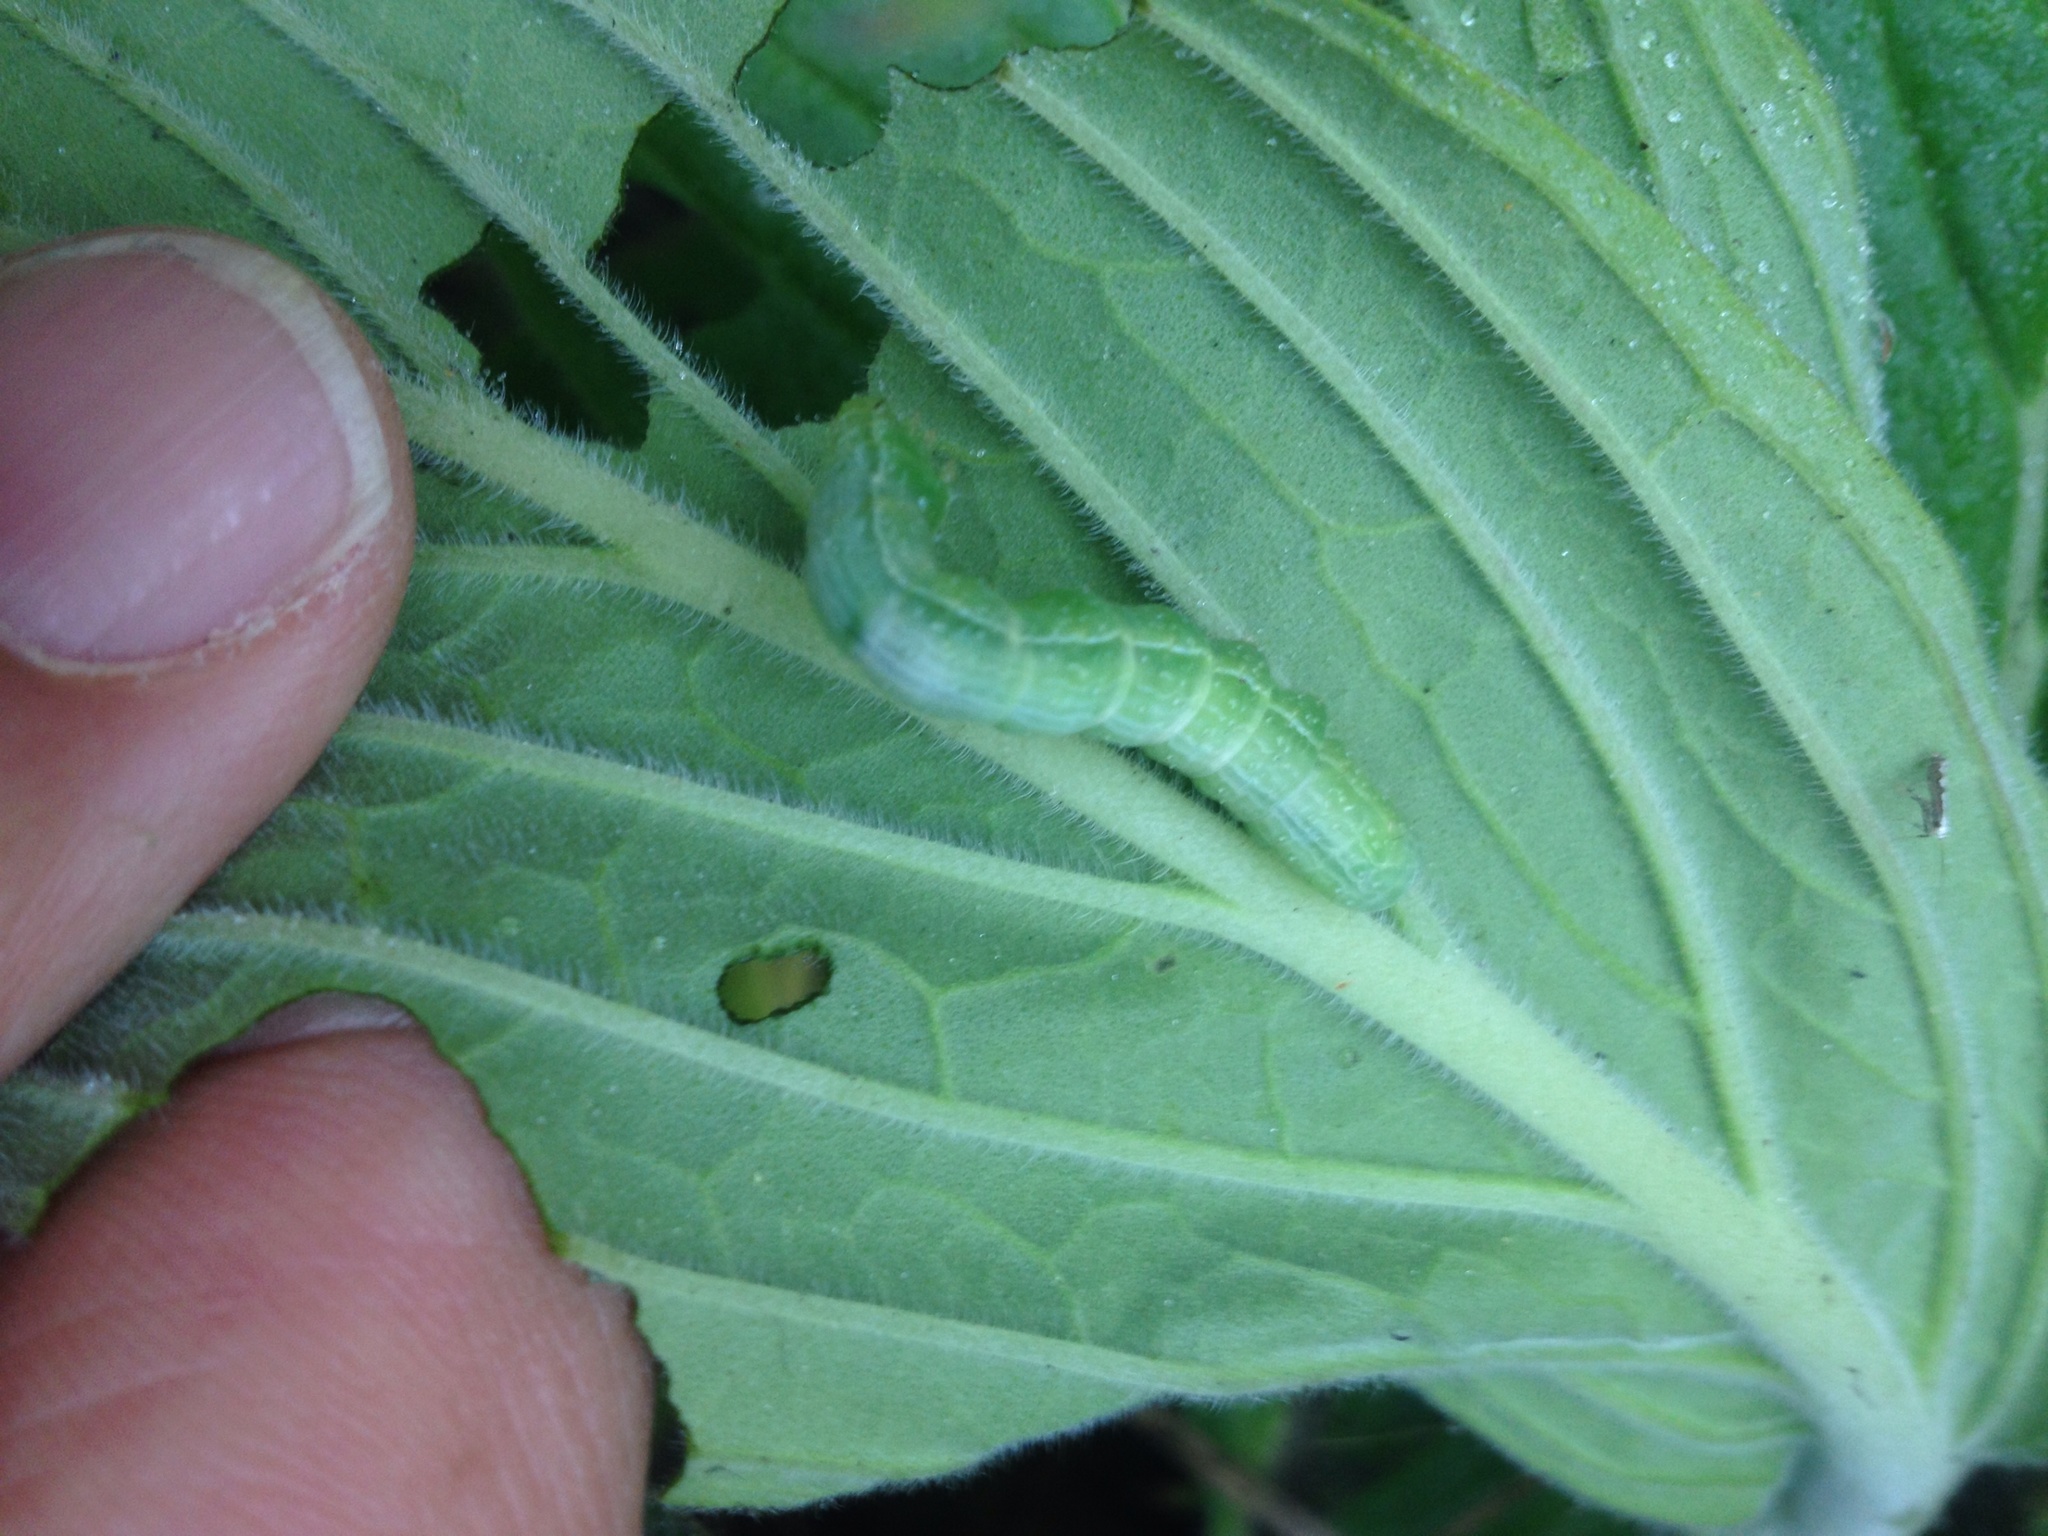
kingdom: Animalia
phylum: Arthropoda
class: Insecta
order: Lepidoptera
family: Noctuidae
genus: Chrysodeixis
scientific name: Chrysodeixis eriosoma
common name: Green garden looper
